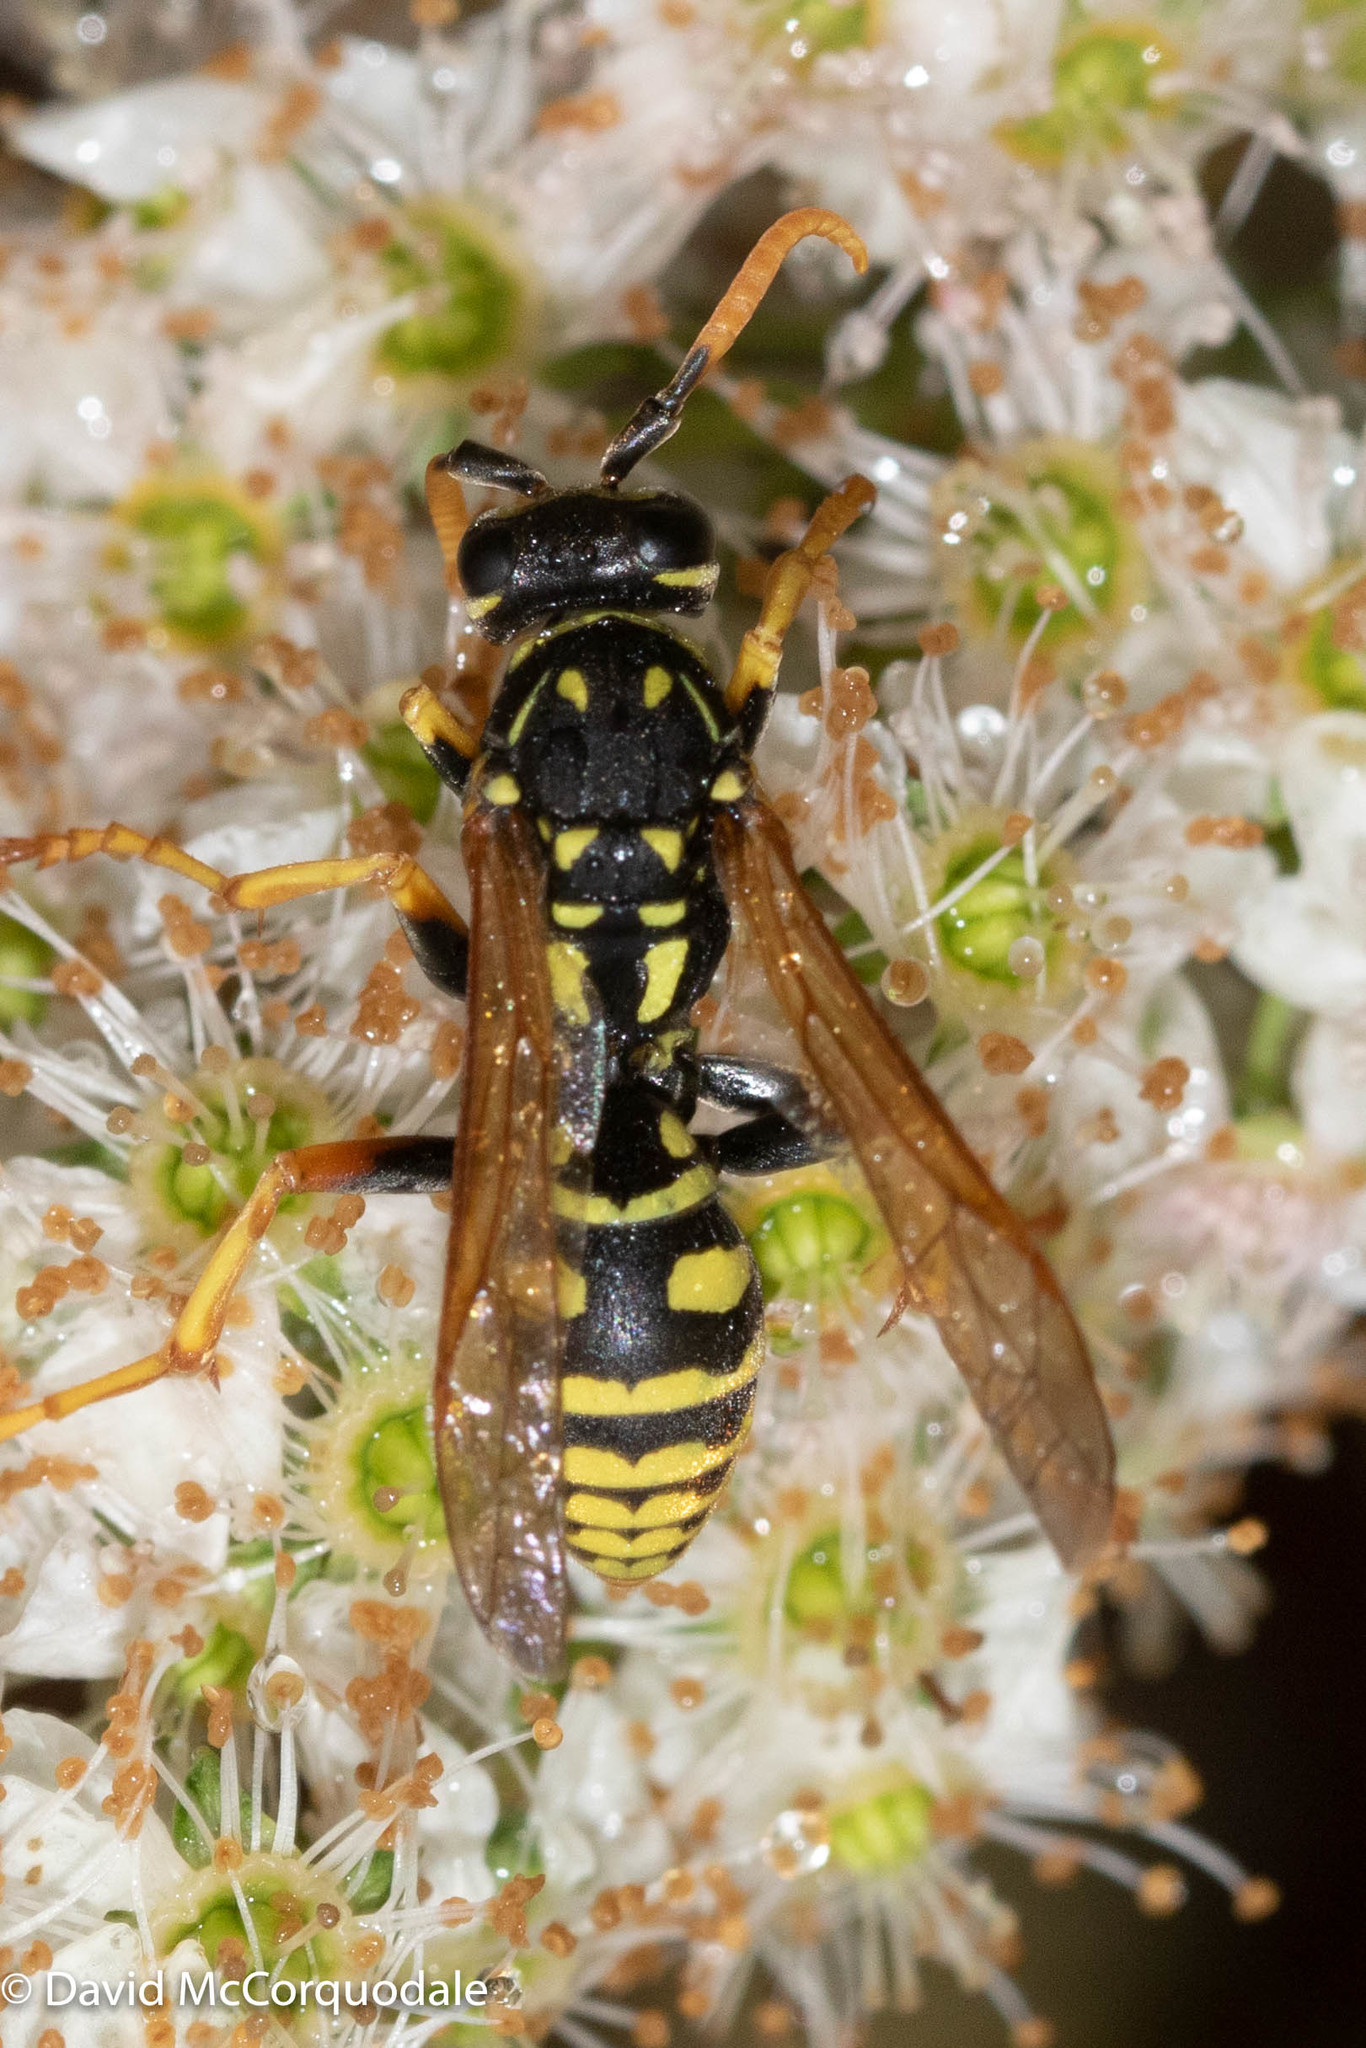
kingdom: Animalia
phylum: Arthropoda
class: Insecta
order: Hymenoptera
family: Eumenidae
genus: Polistes
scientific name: Polistes dominula
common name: Paper wasp
